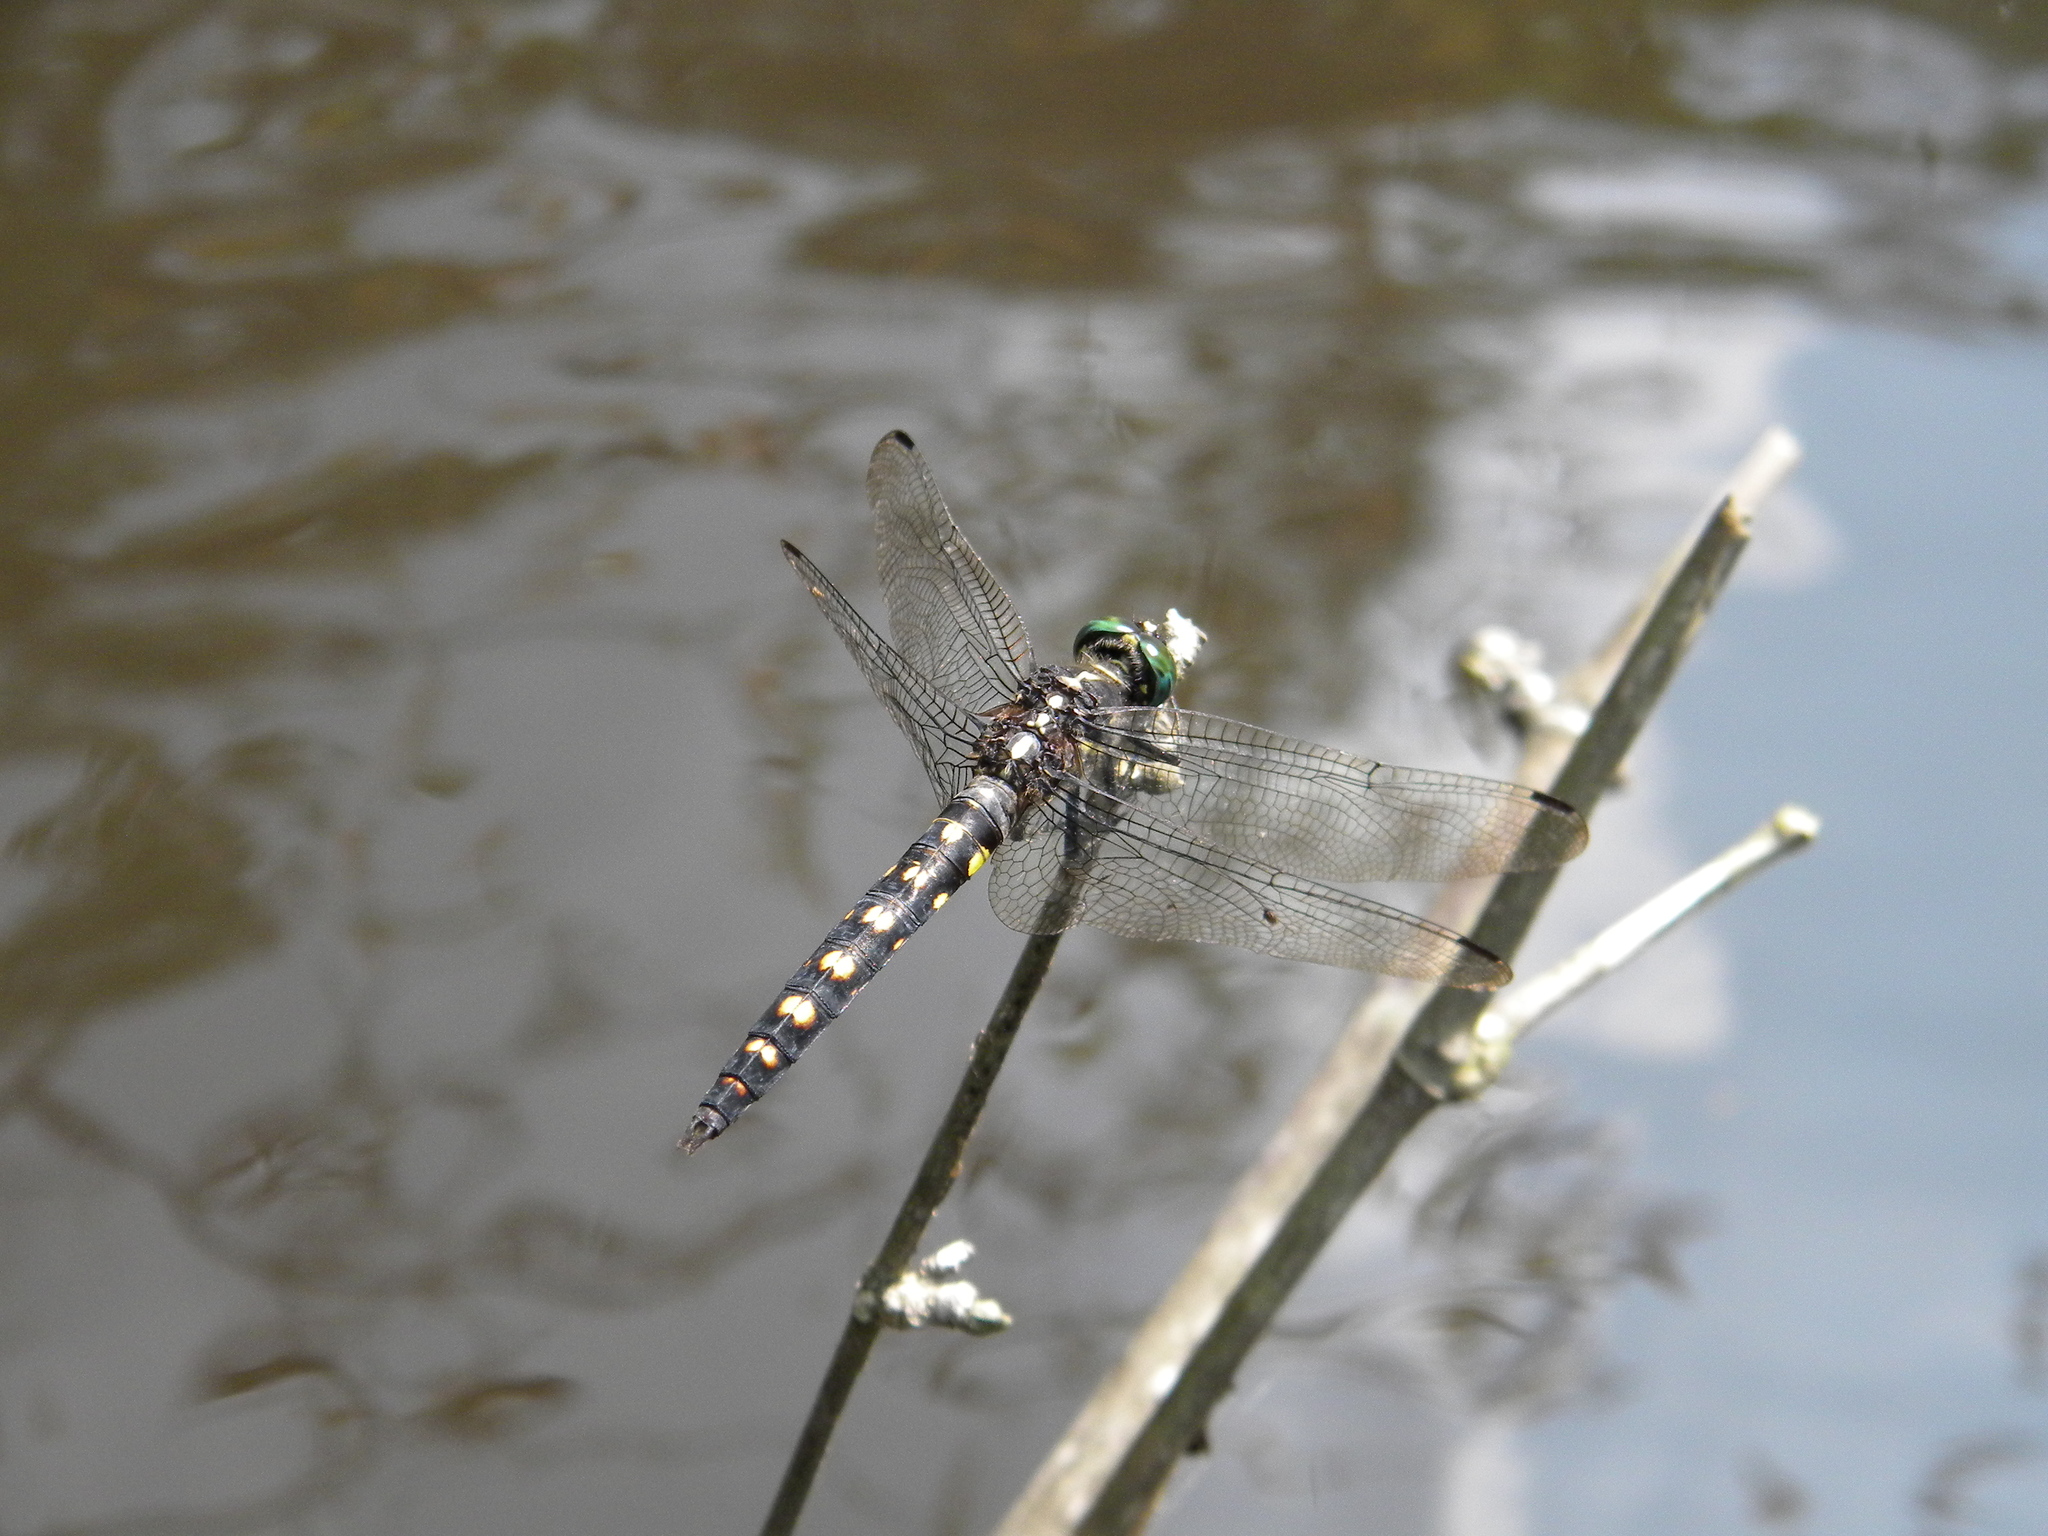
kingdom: Animalia
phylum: Arthropoda
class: Insecta
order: Odonata
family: Libellulidae
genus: Onychothemis
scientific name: Onychothemis testacea
